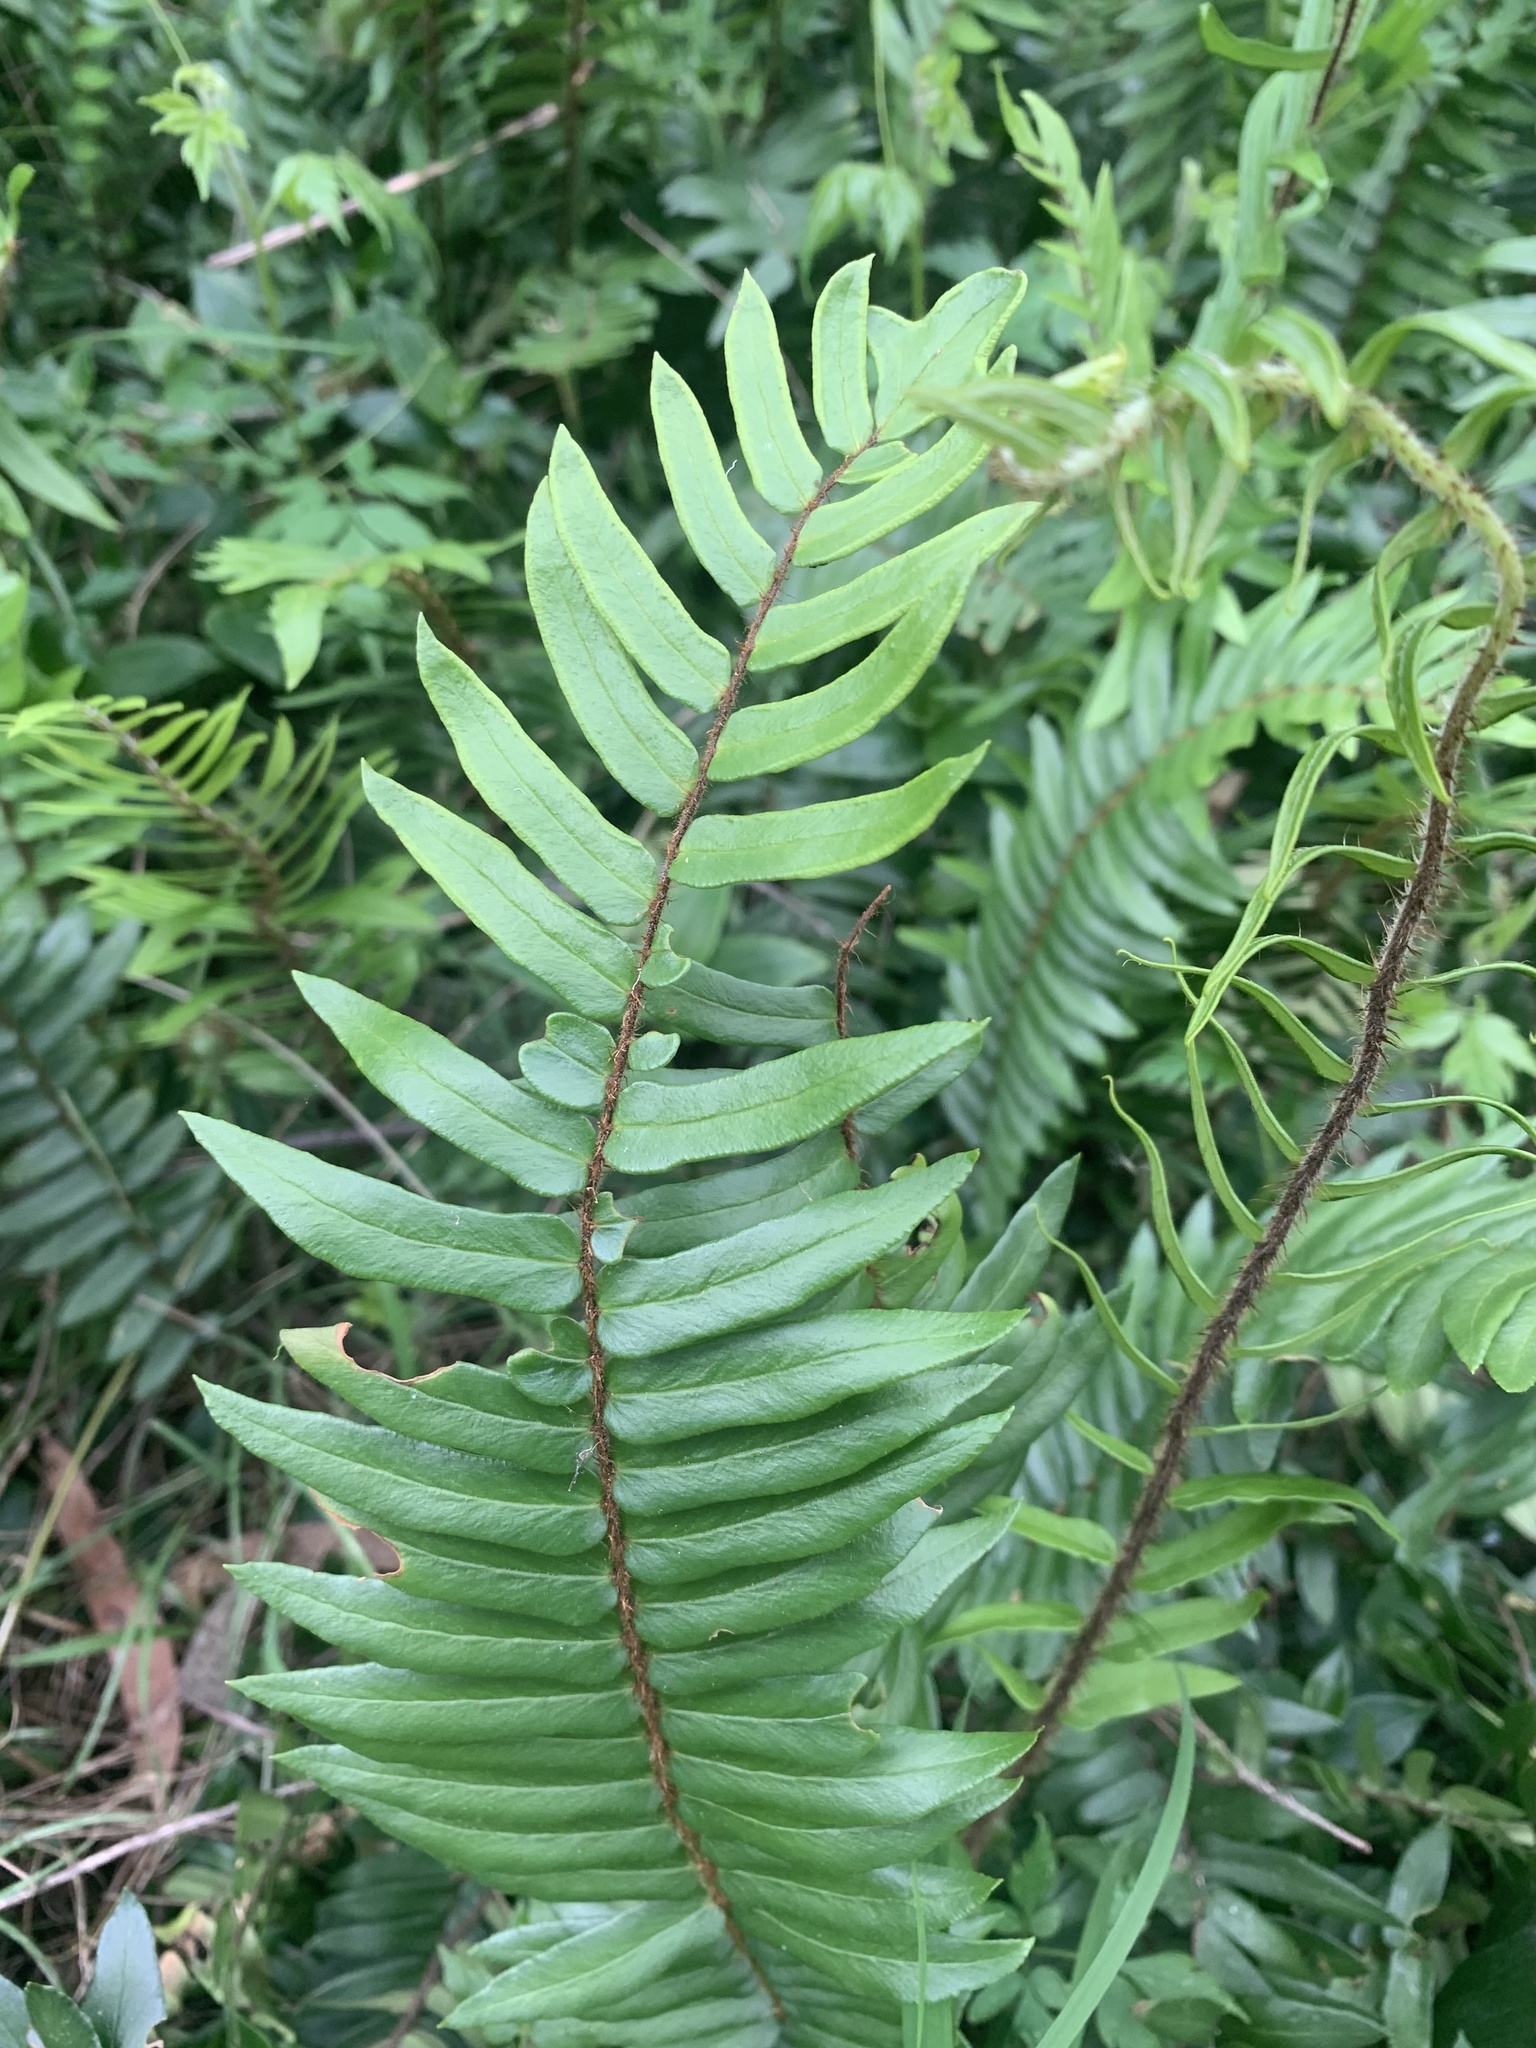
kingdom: Plantae
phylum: Tracheophyta
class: Polypodiopsida
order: Polypodiales
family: Pteridaceae
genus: Pellaea
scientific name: Pellaea falcata
